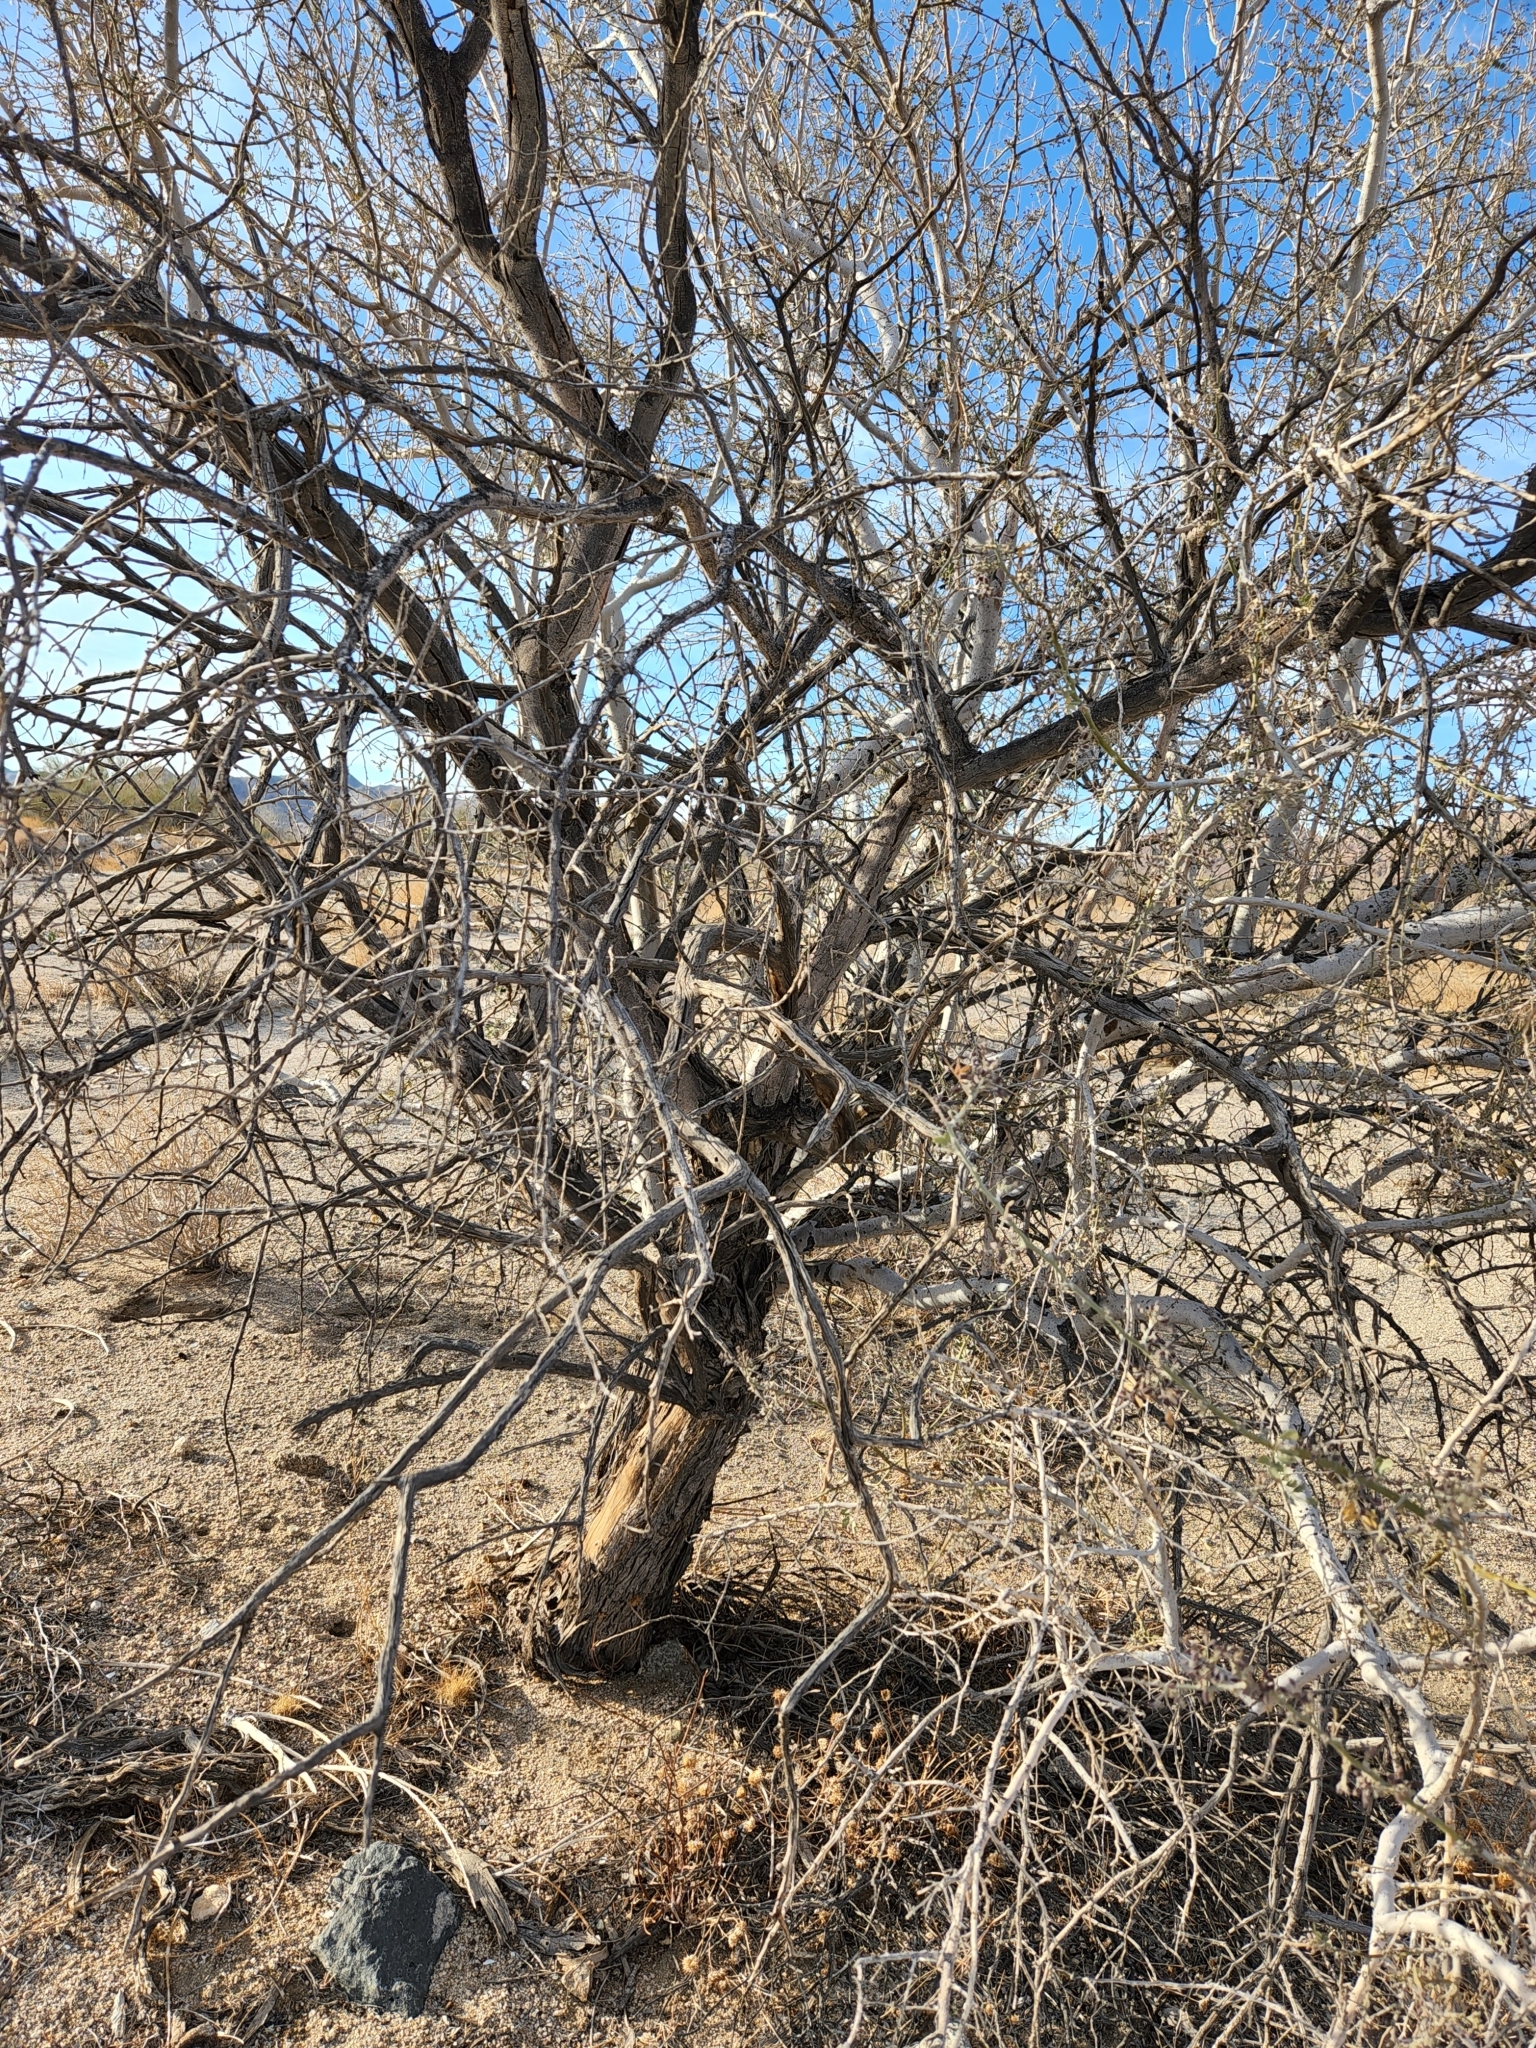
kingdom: Plantae
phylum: Tracheophyta
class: Magnoliopsida
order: Fabales
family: Fabaceae
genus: Olneya
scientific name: Olneya tesota
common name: Desert ironwood
